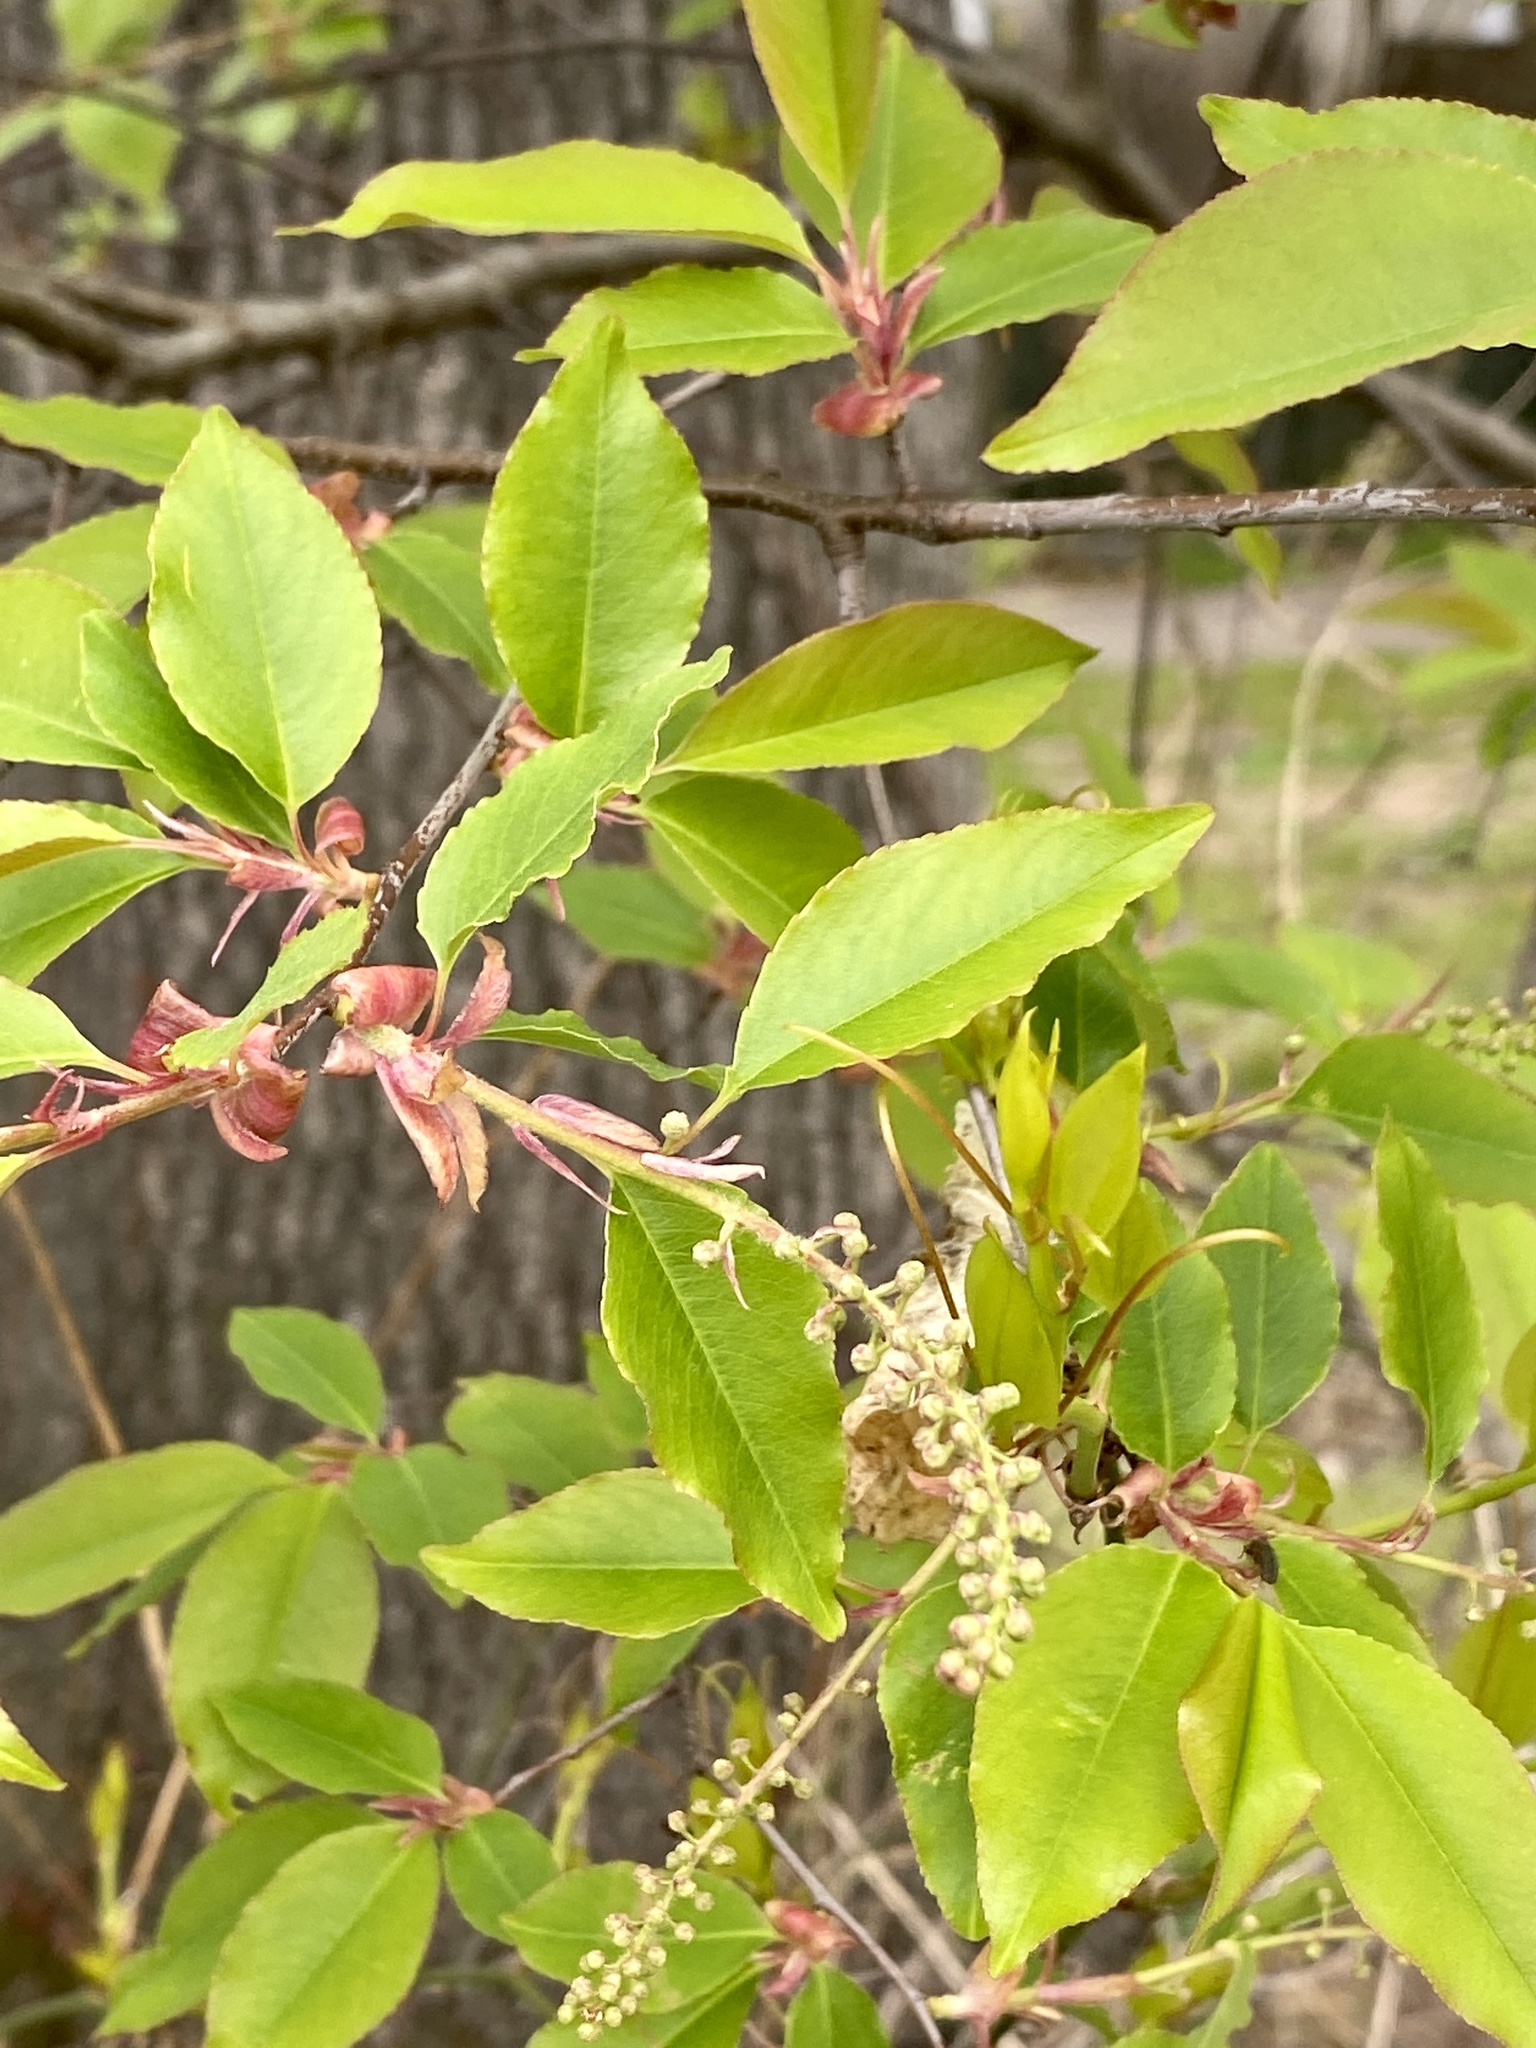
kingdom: Plantae
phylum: Tracheophyta
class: Magnoliopsida
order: Rosales
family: Rosaceae
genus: Prunus
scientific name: Prunus serotina
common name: Black cherry
